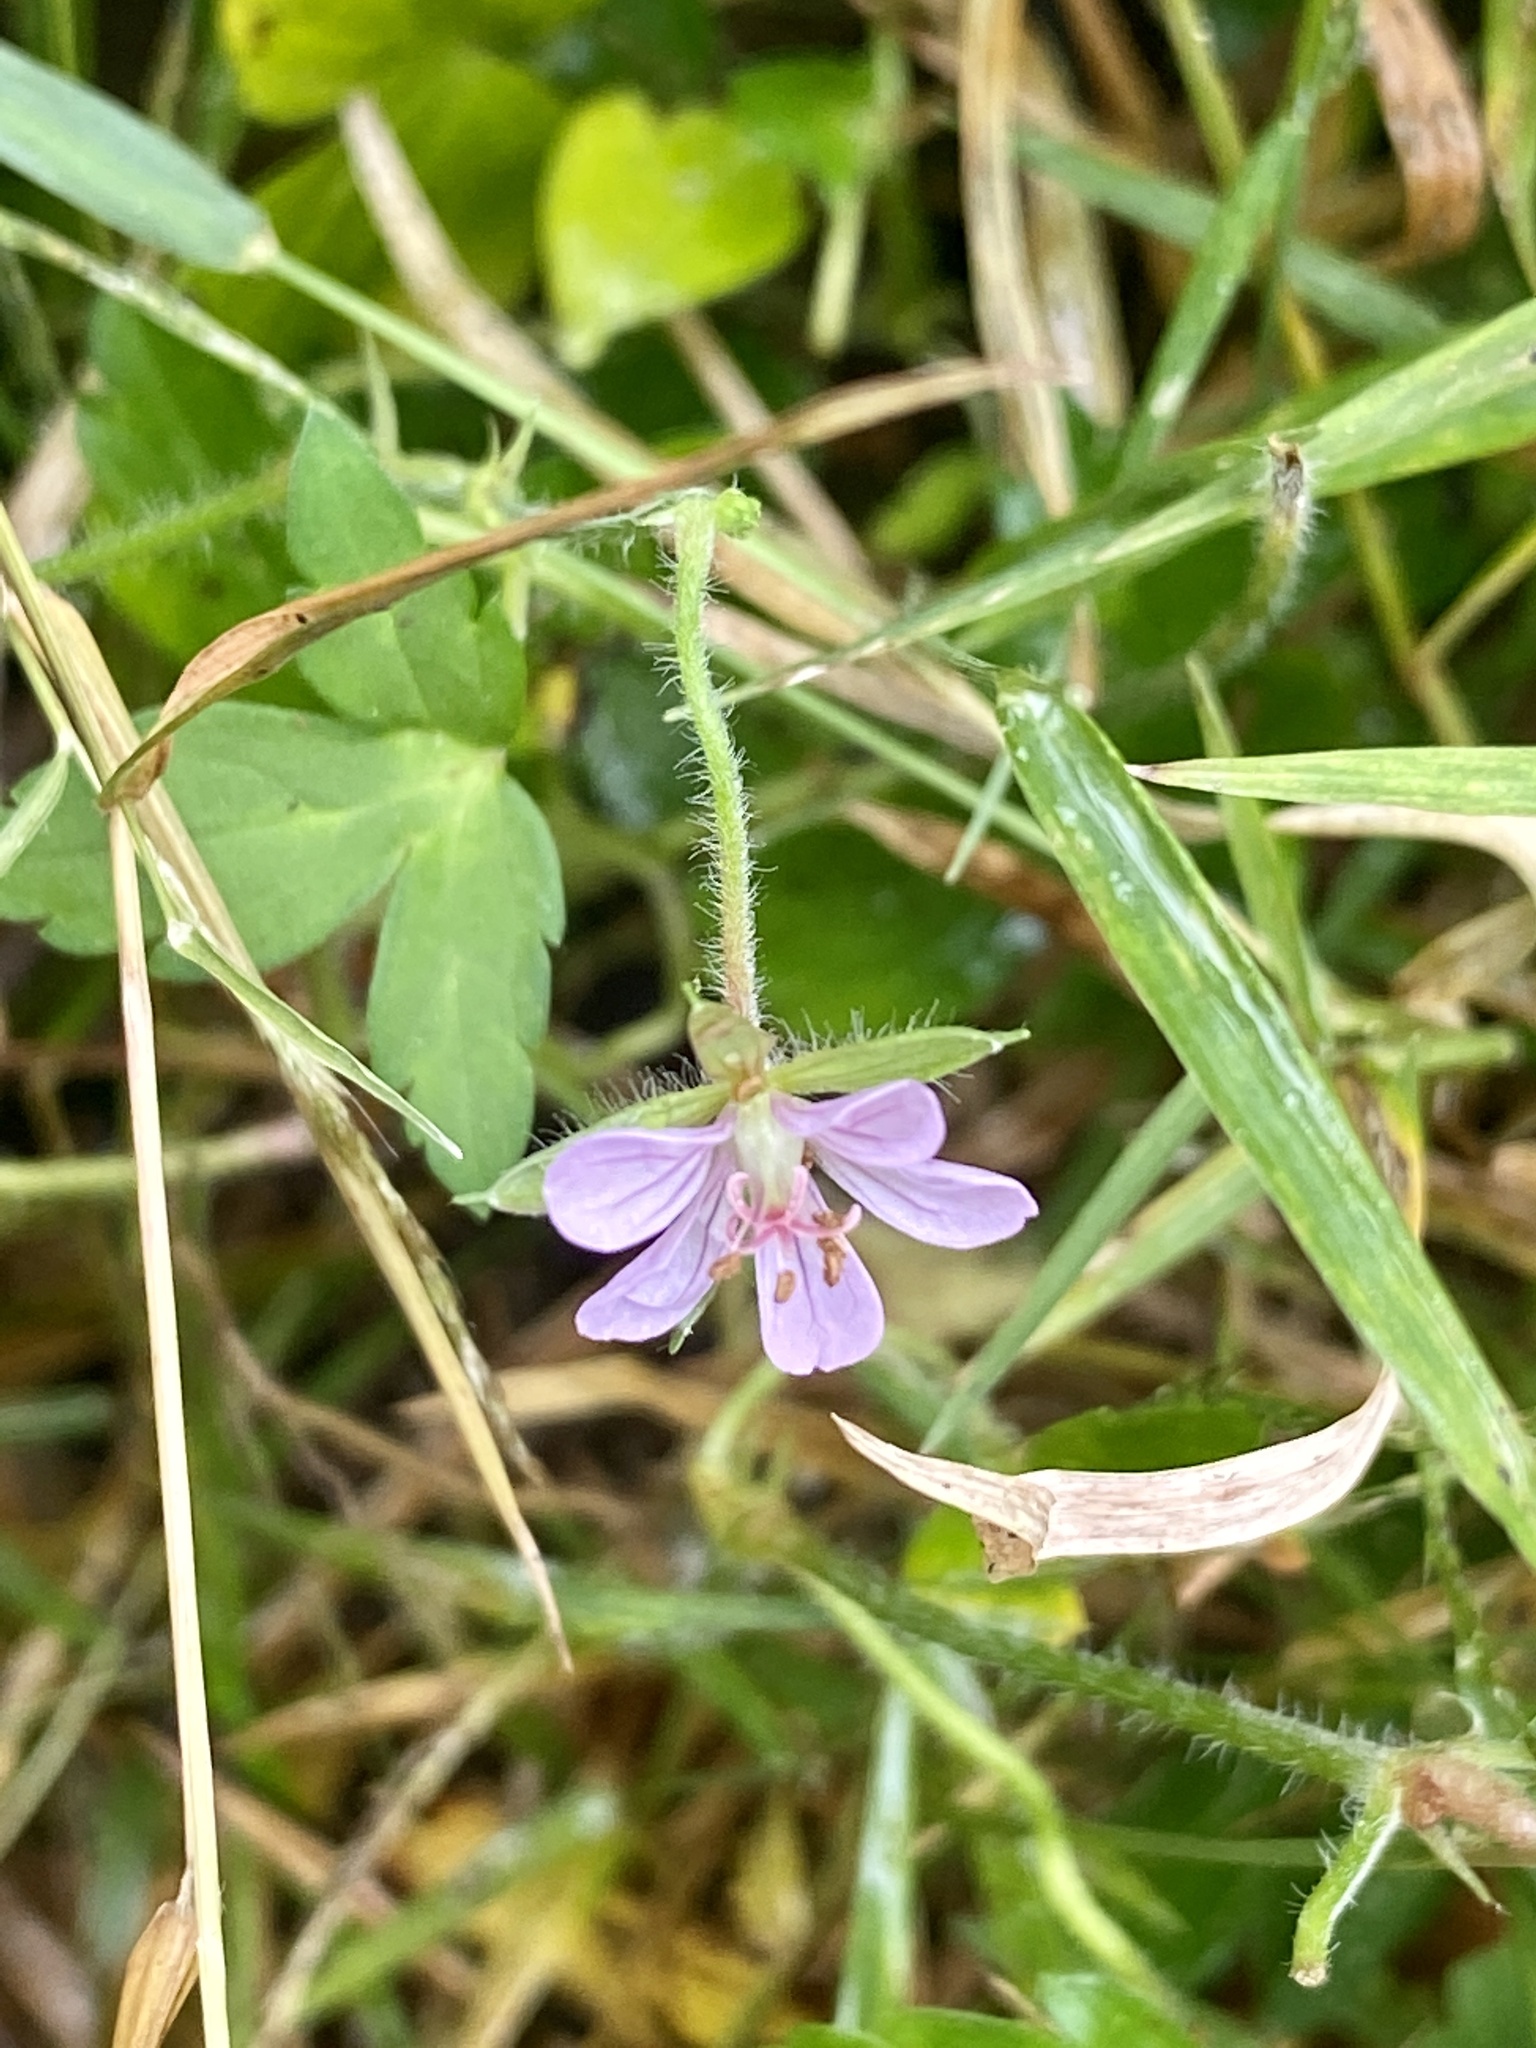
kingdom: Plantae
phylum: Tracheophyta
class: Magnoliopsida
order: Geraniales
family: Geraniaceae
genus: Geranium
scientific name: Geranium thunbergii
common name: Dewdrop crane's-bill
